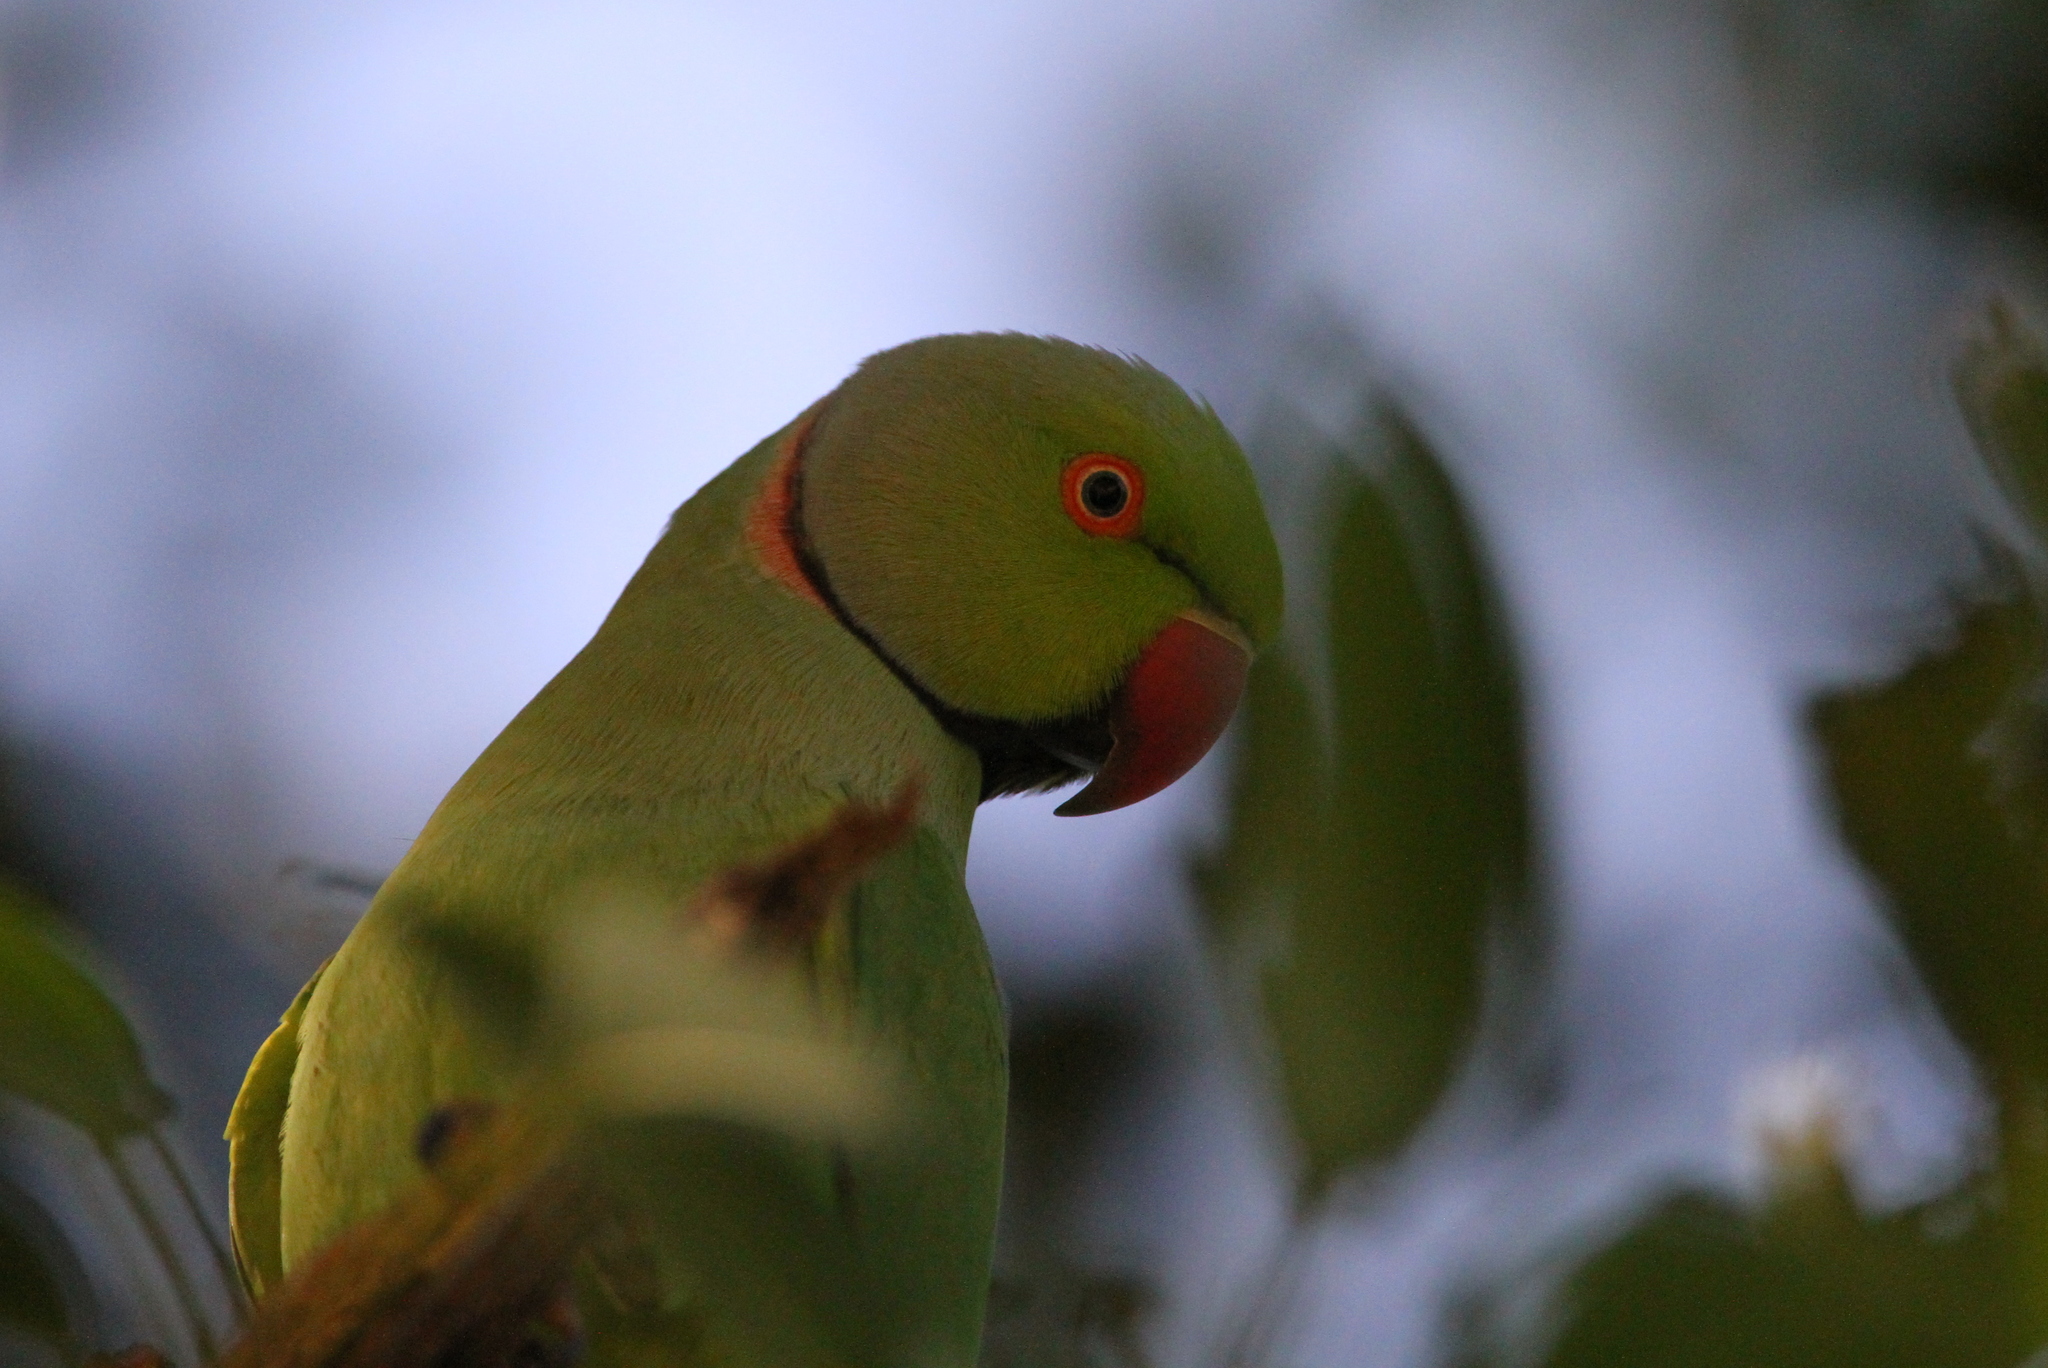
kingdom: Animalia
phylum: Chordata
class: Aves
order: Psittaciformes
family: Psittacidae
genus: Psittacula
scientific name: Psittacula krameri
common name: Rose-ringed parakeet
